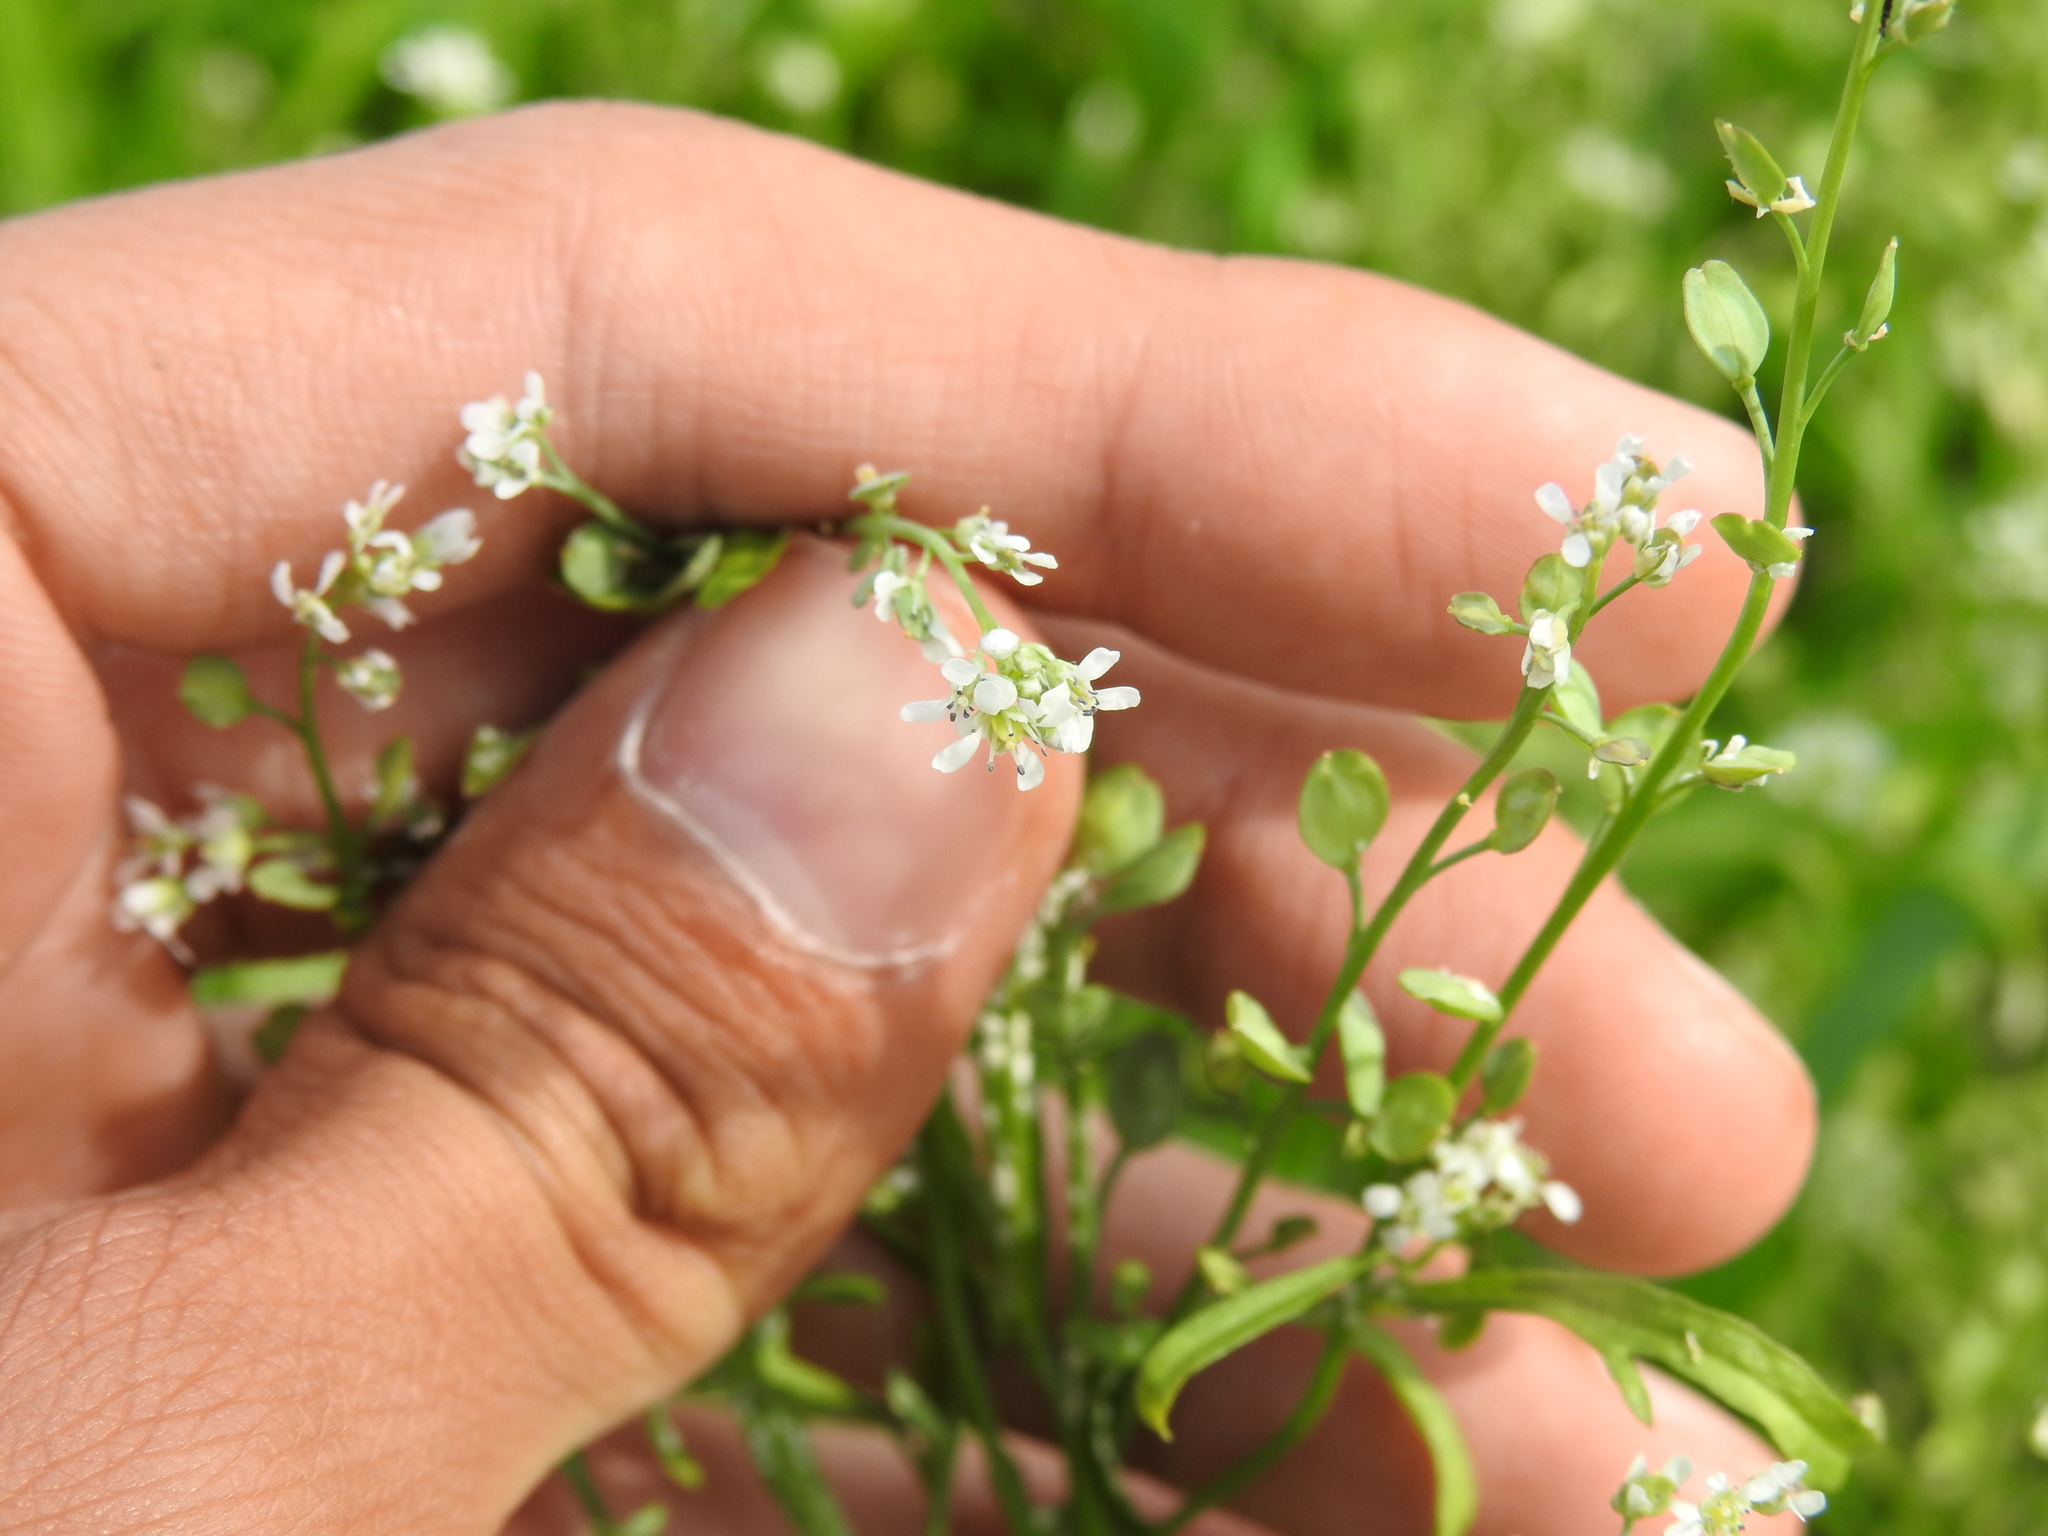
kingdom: Plantae
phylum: Tracheophyta
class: Magnoliopsida
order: Brassicales
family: Brassicaceae
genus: Lepidium
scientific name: Lepidium sativum
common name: Garden cress
